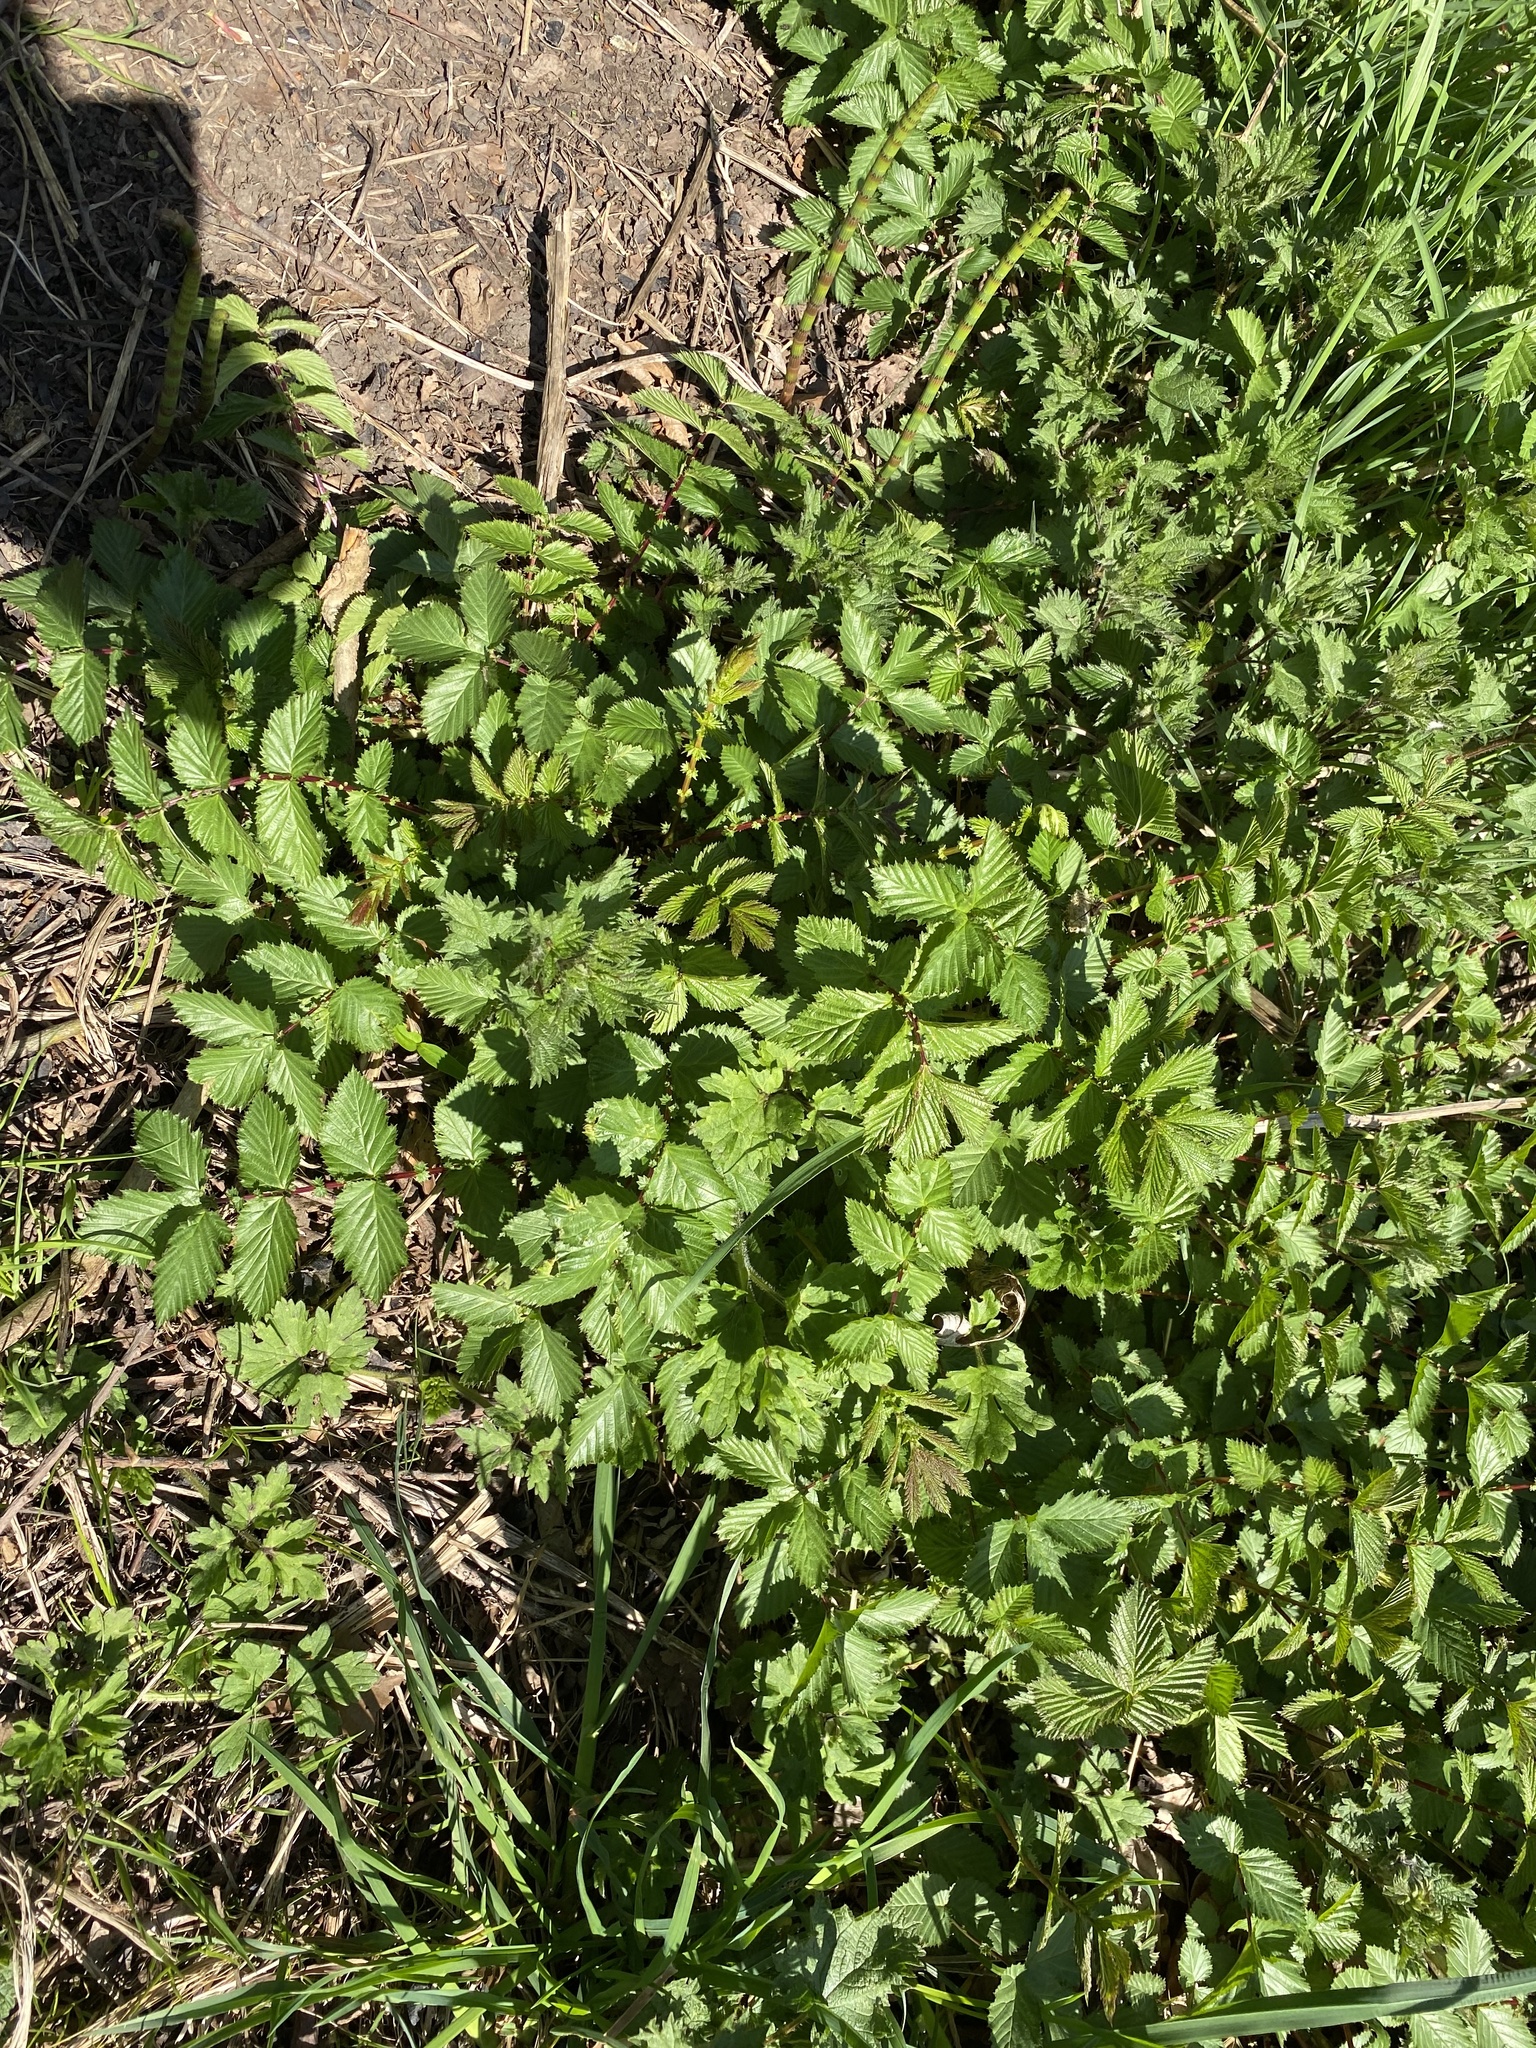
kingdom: Plantae
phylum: Tracheophyta
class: Magnoliopsida
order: Rosales
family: Rosaceae
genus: Filipendula
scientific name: Filipendula ulmaria
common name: Meadowsweet
